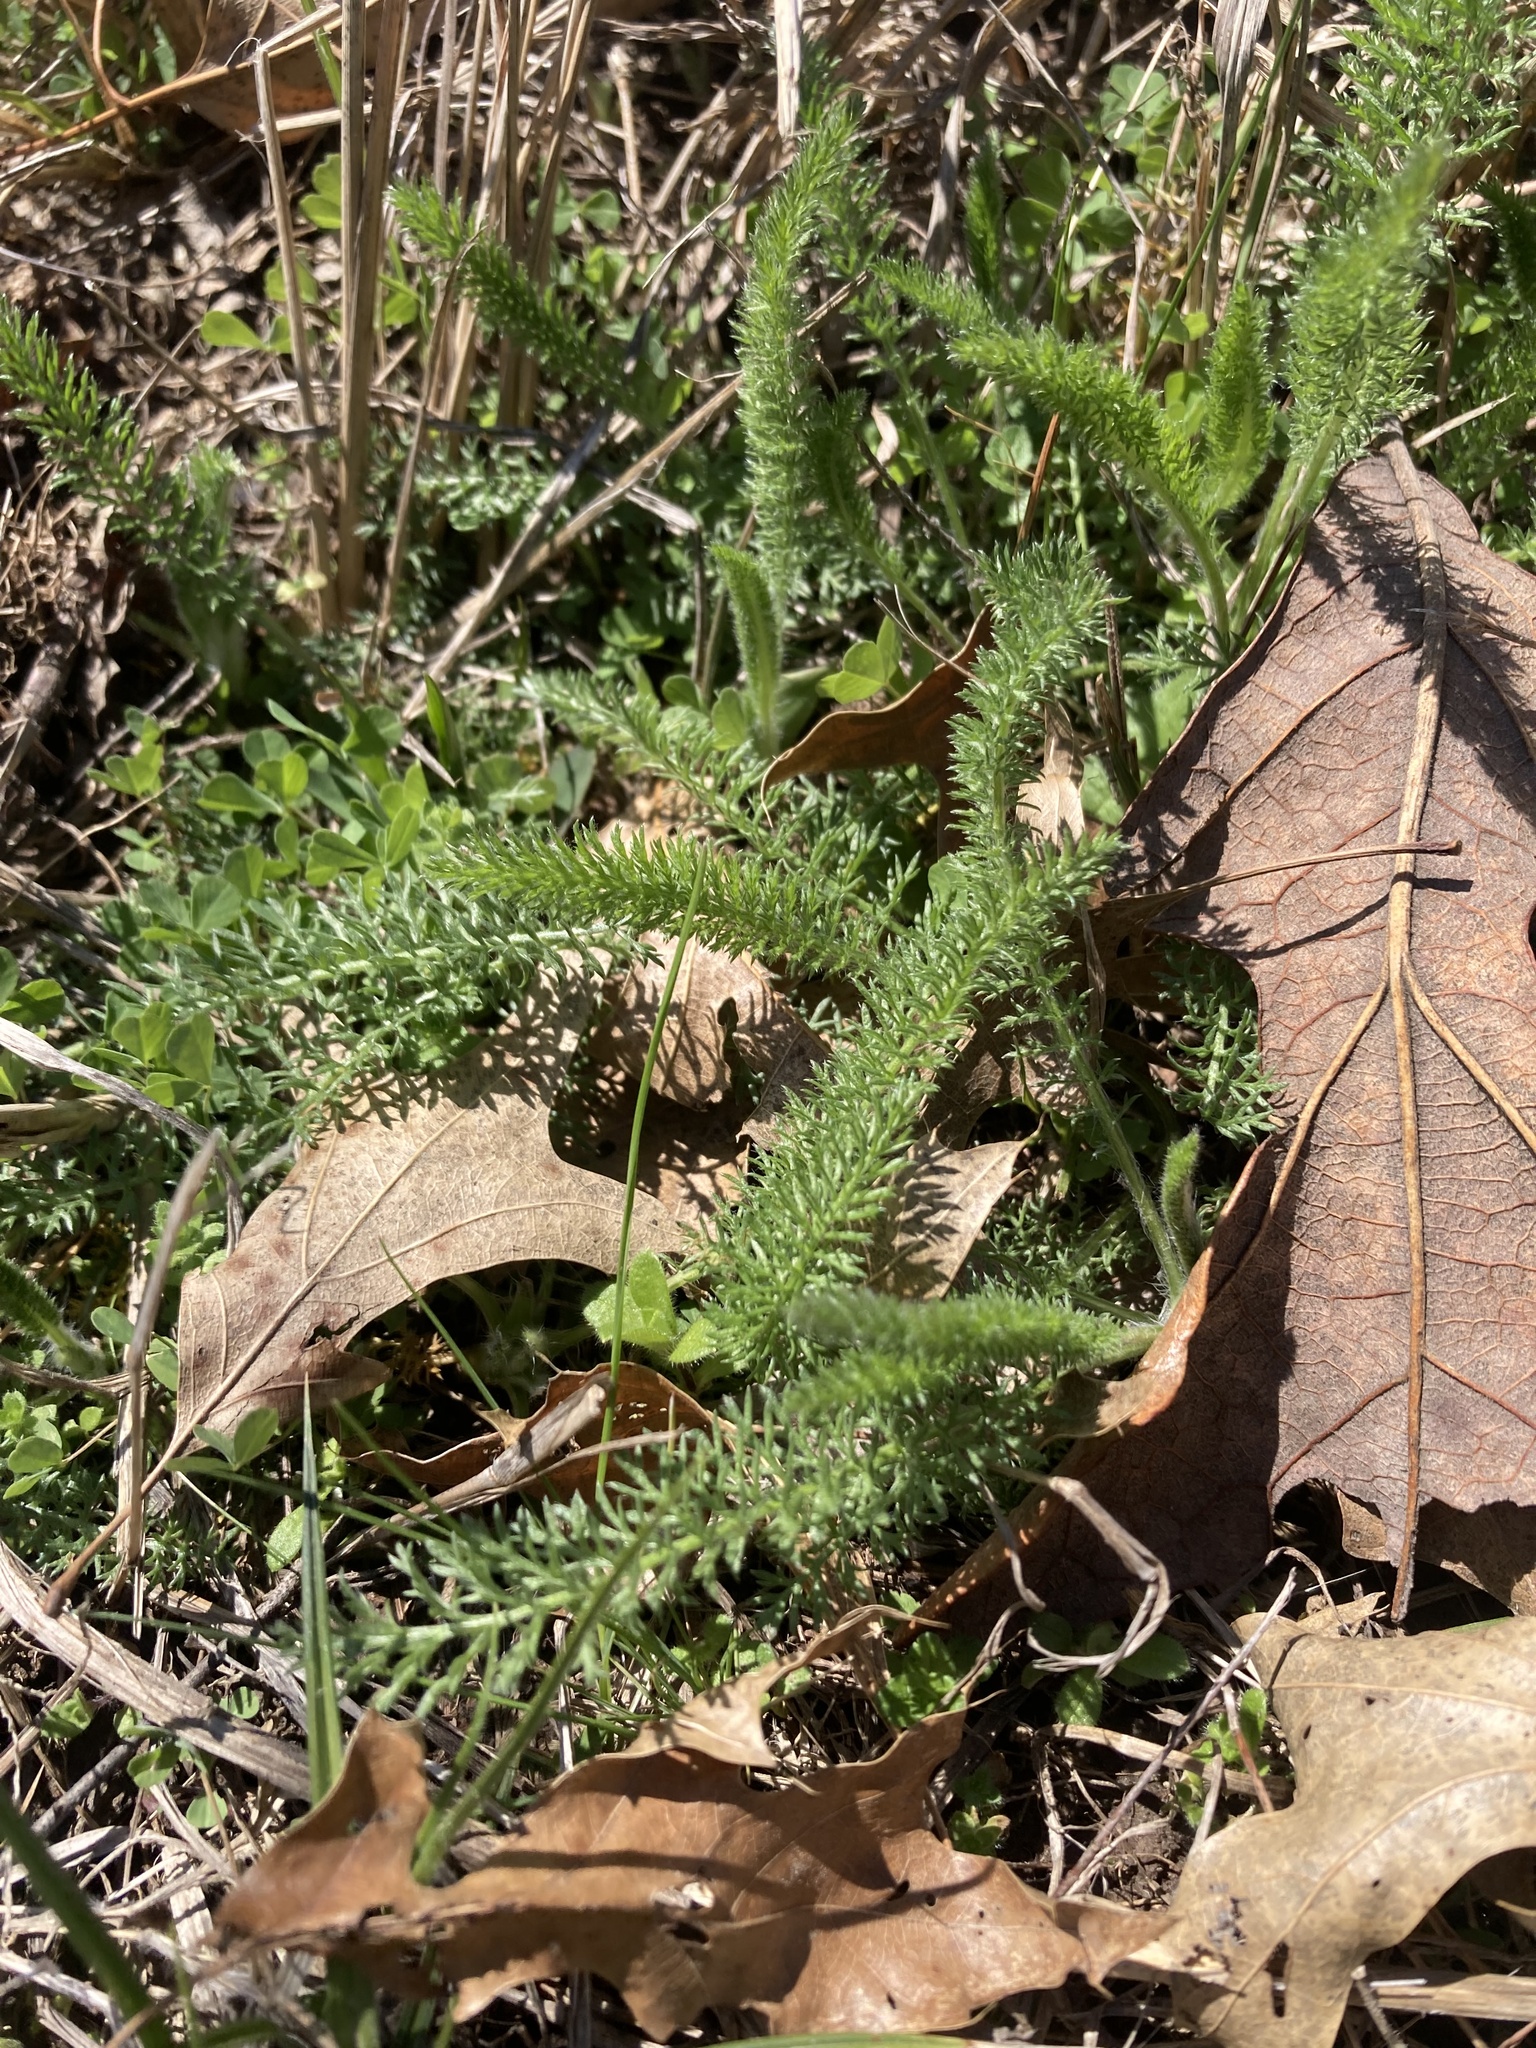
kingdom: Plantae
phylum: Tracheophyta
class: Magnoliopsida
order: Asterales
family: Asteraceae
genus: Achillea
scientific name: Achillea millefolium
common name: Yarrow
